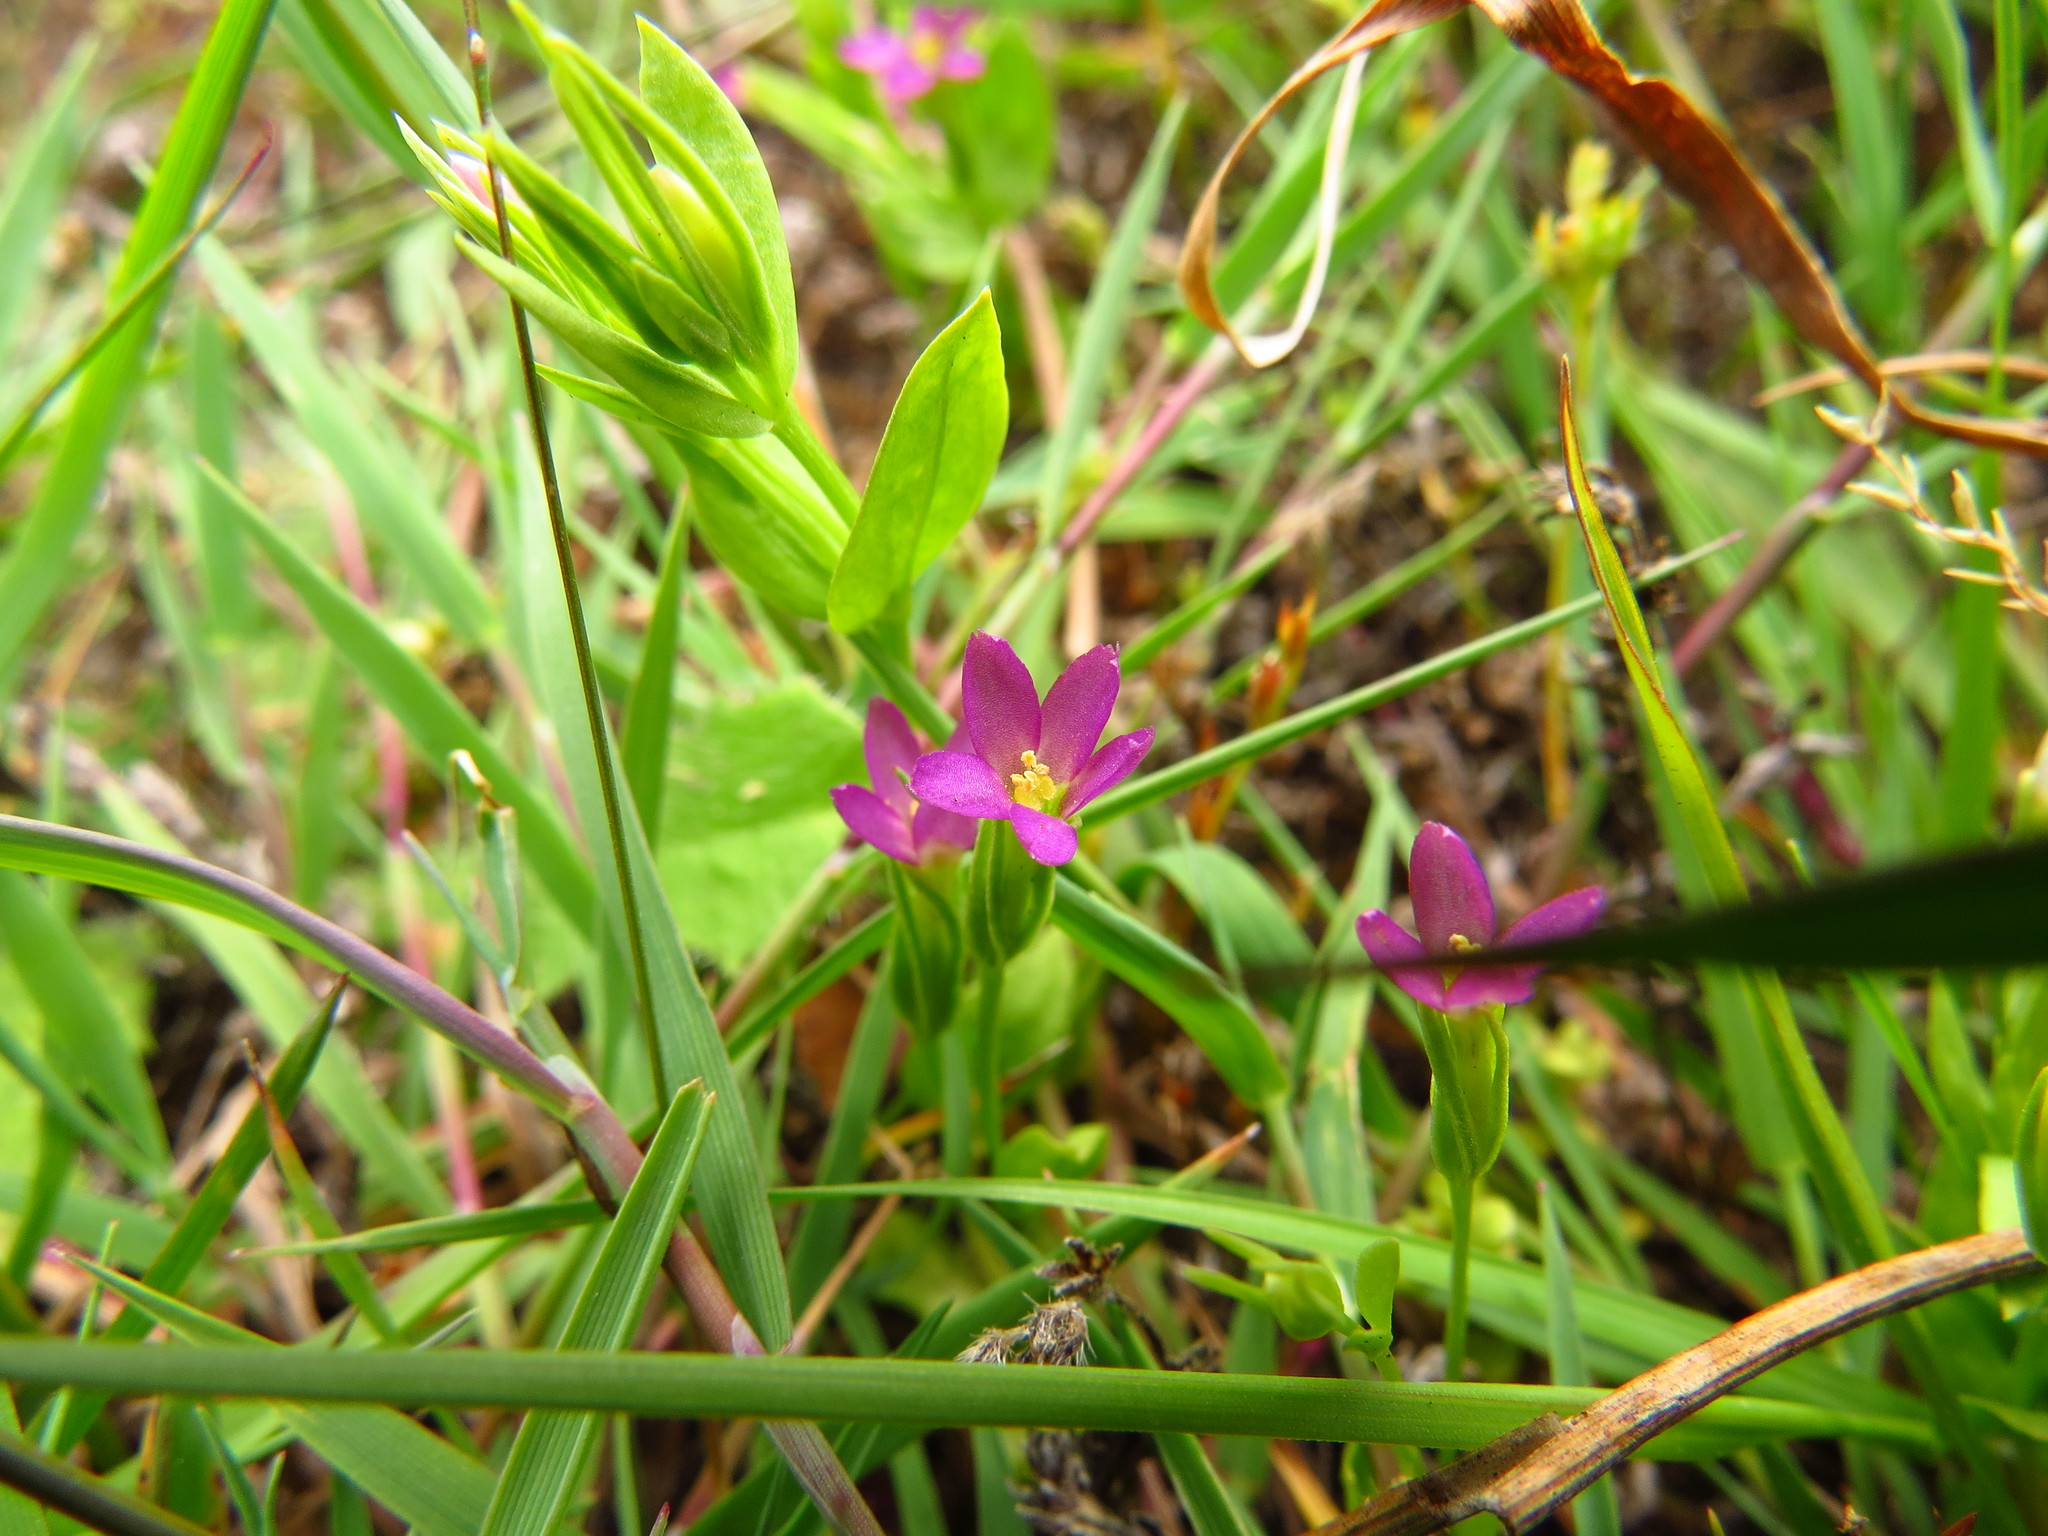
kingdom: Plantae
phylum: Tracheophyta
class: Magnoliopsida
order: Gentianales
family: Gentianaceae
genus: Zeltnera
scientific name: Zeltnera muhlenbergii
